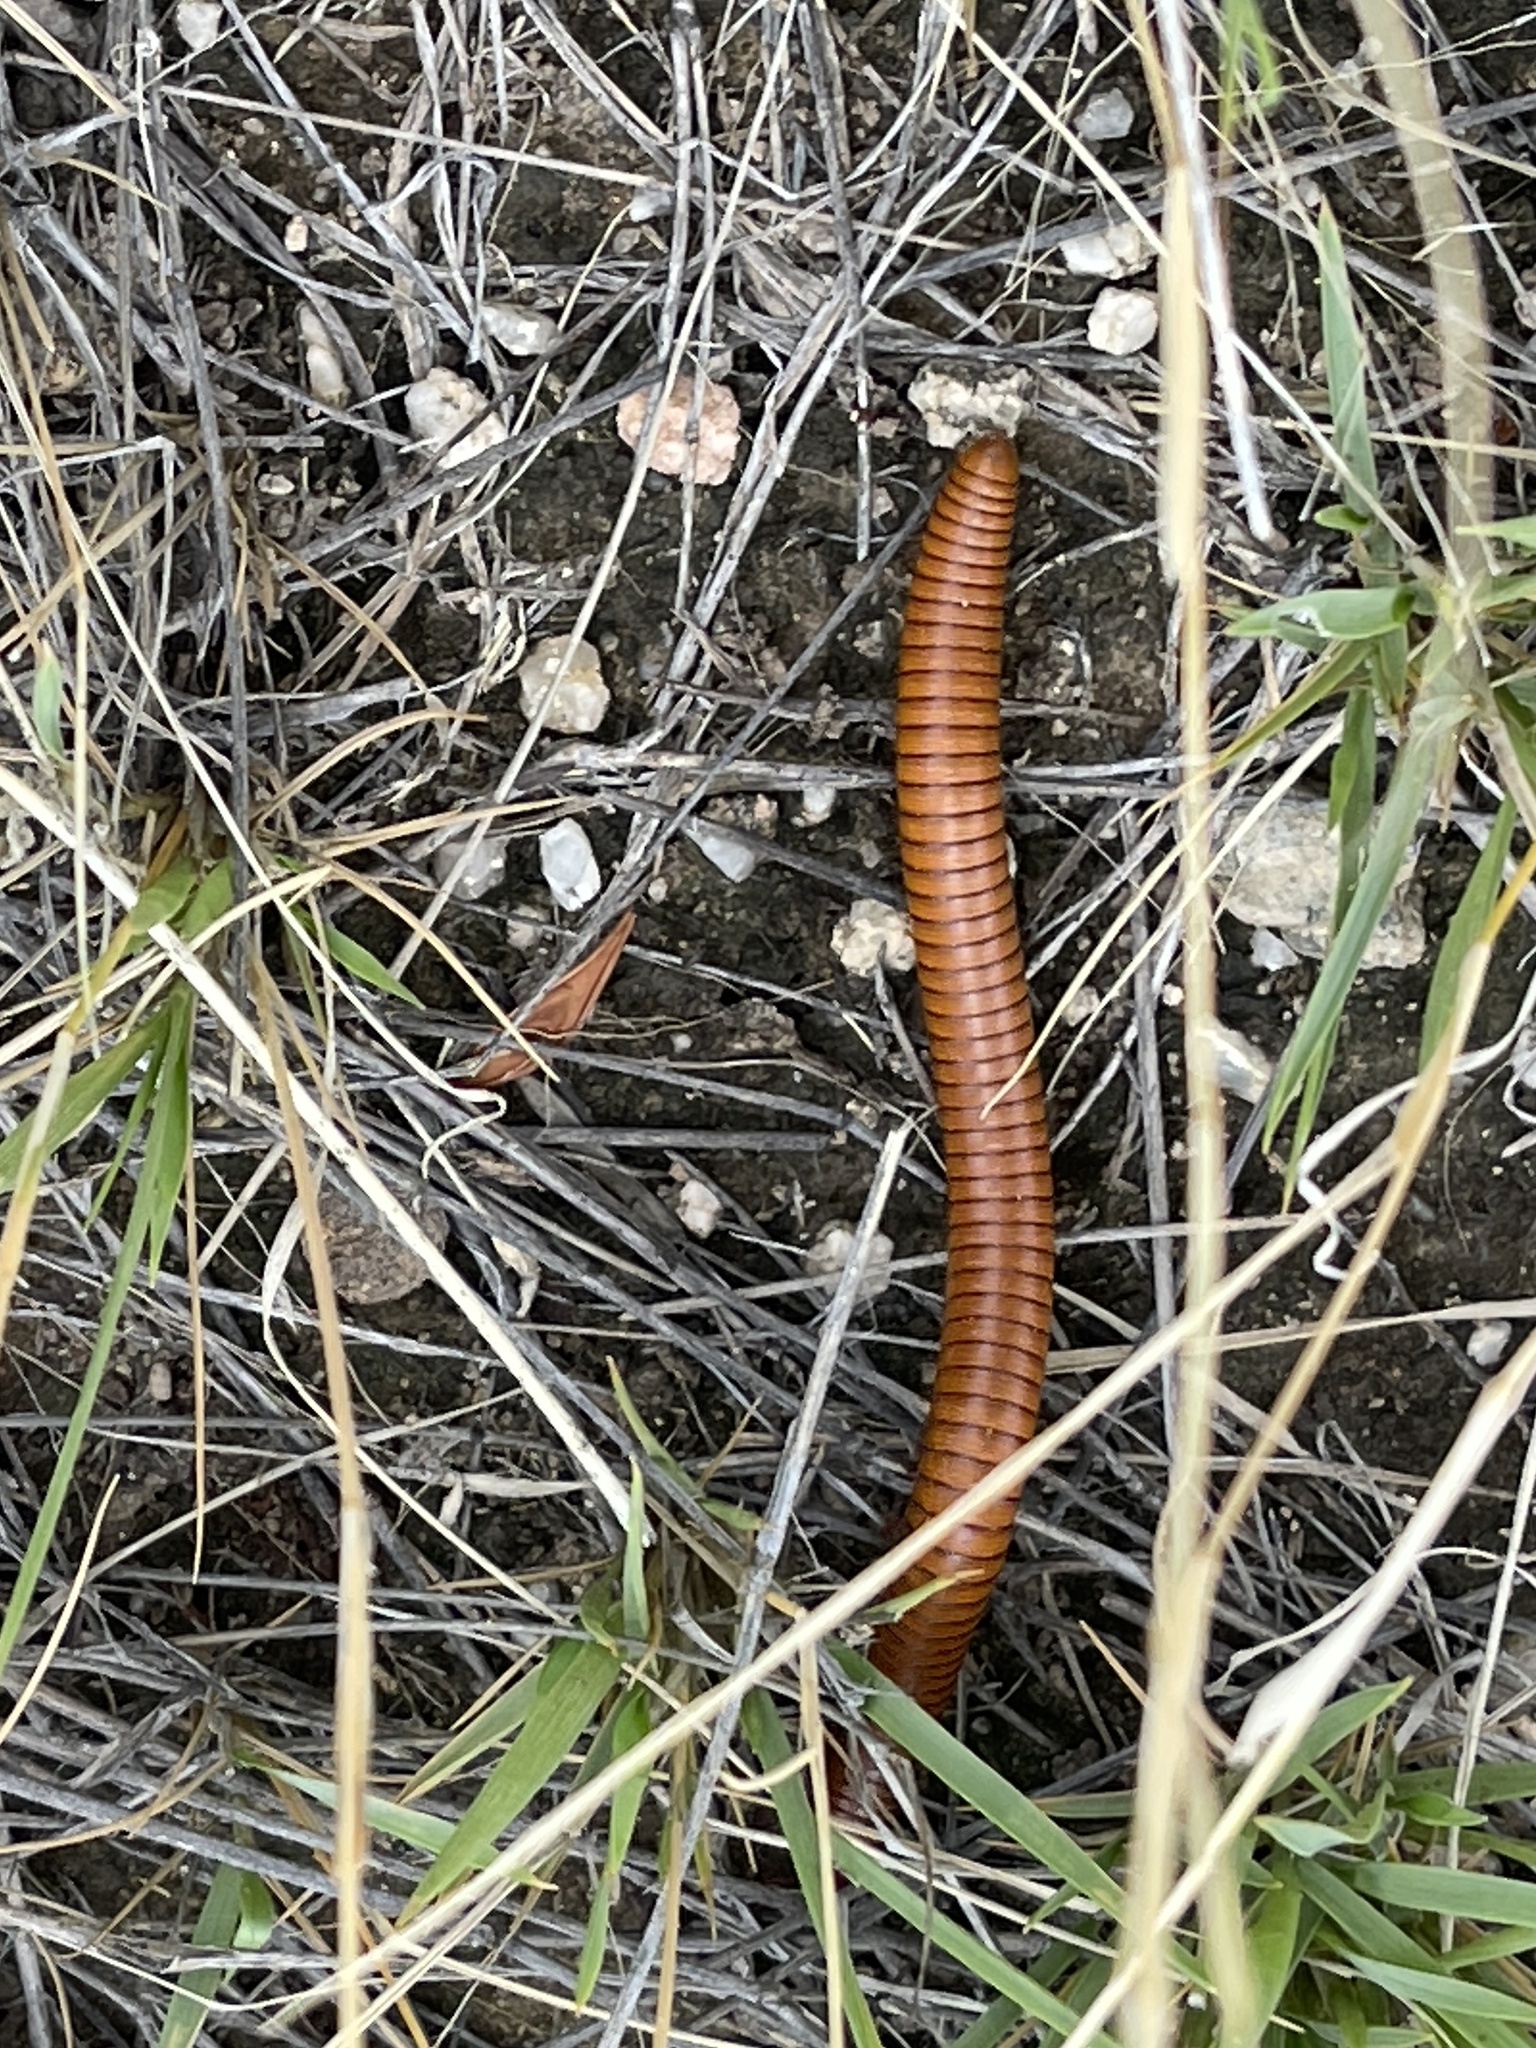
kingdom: Animalia
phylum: Arthropoda
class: Diplopoda
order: Spirostreptida
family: Spirostreptidae
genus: Orthoporus
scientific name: Orthoporus ornatus
